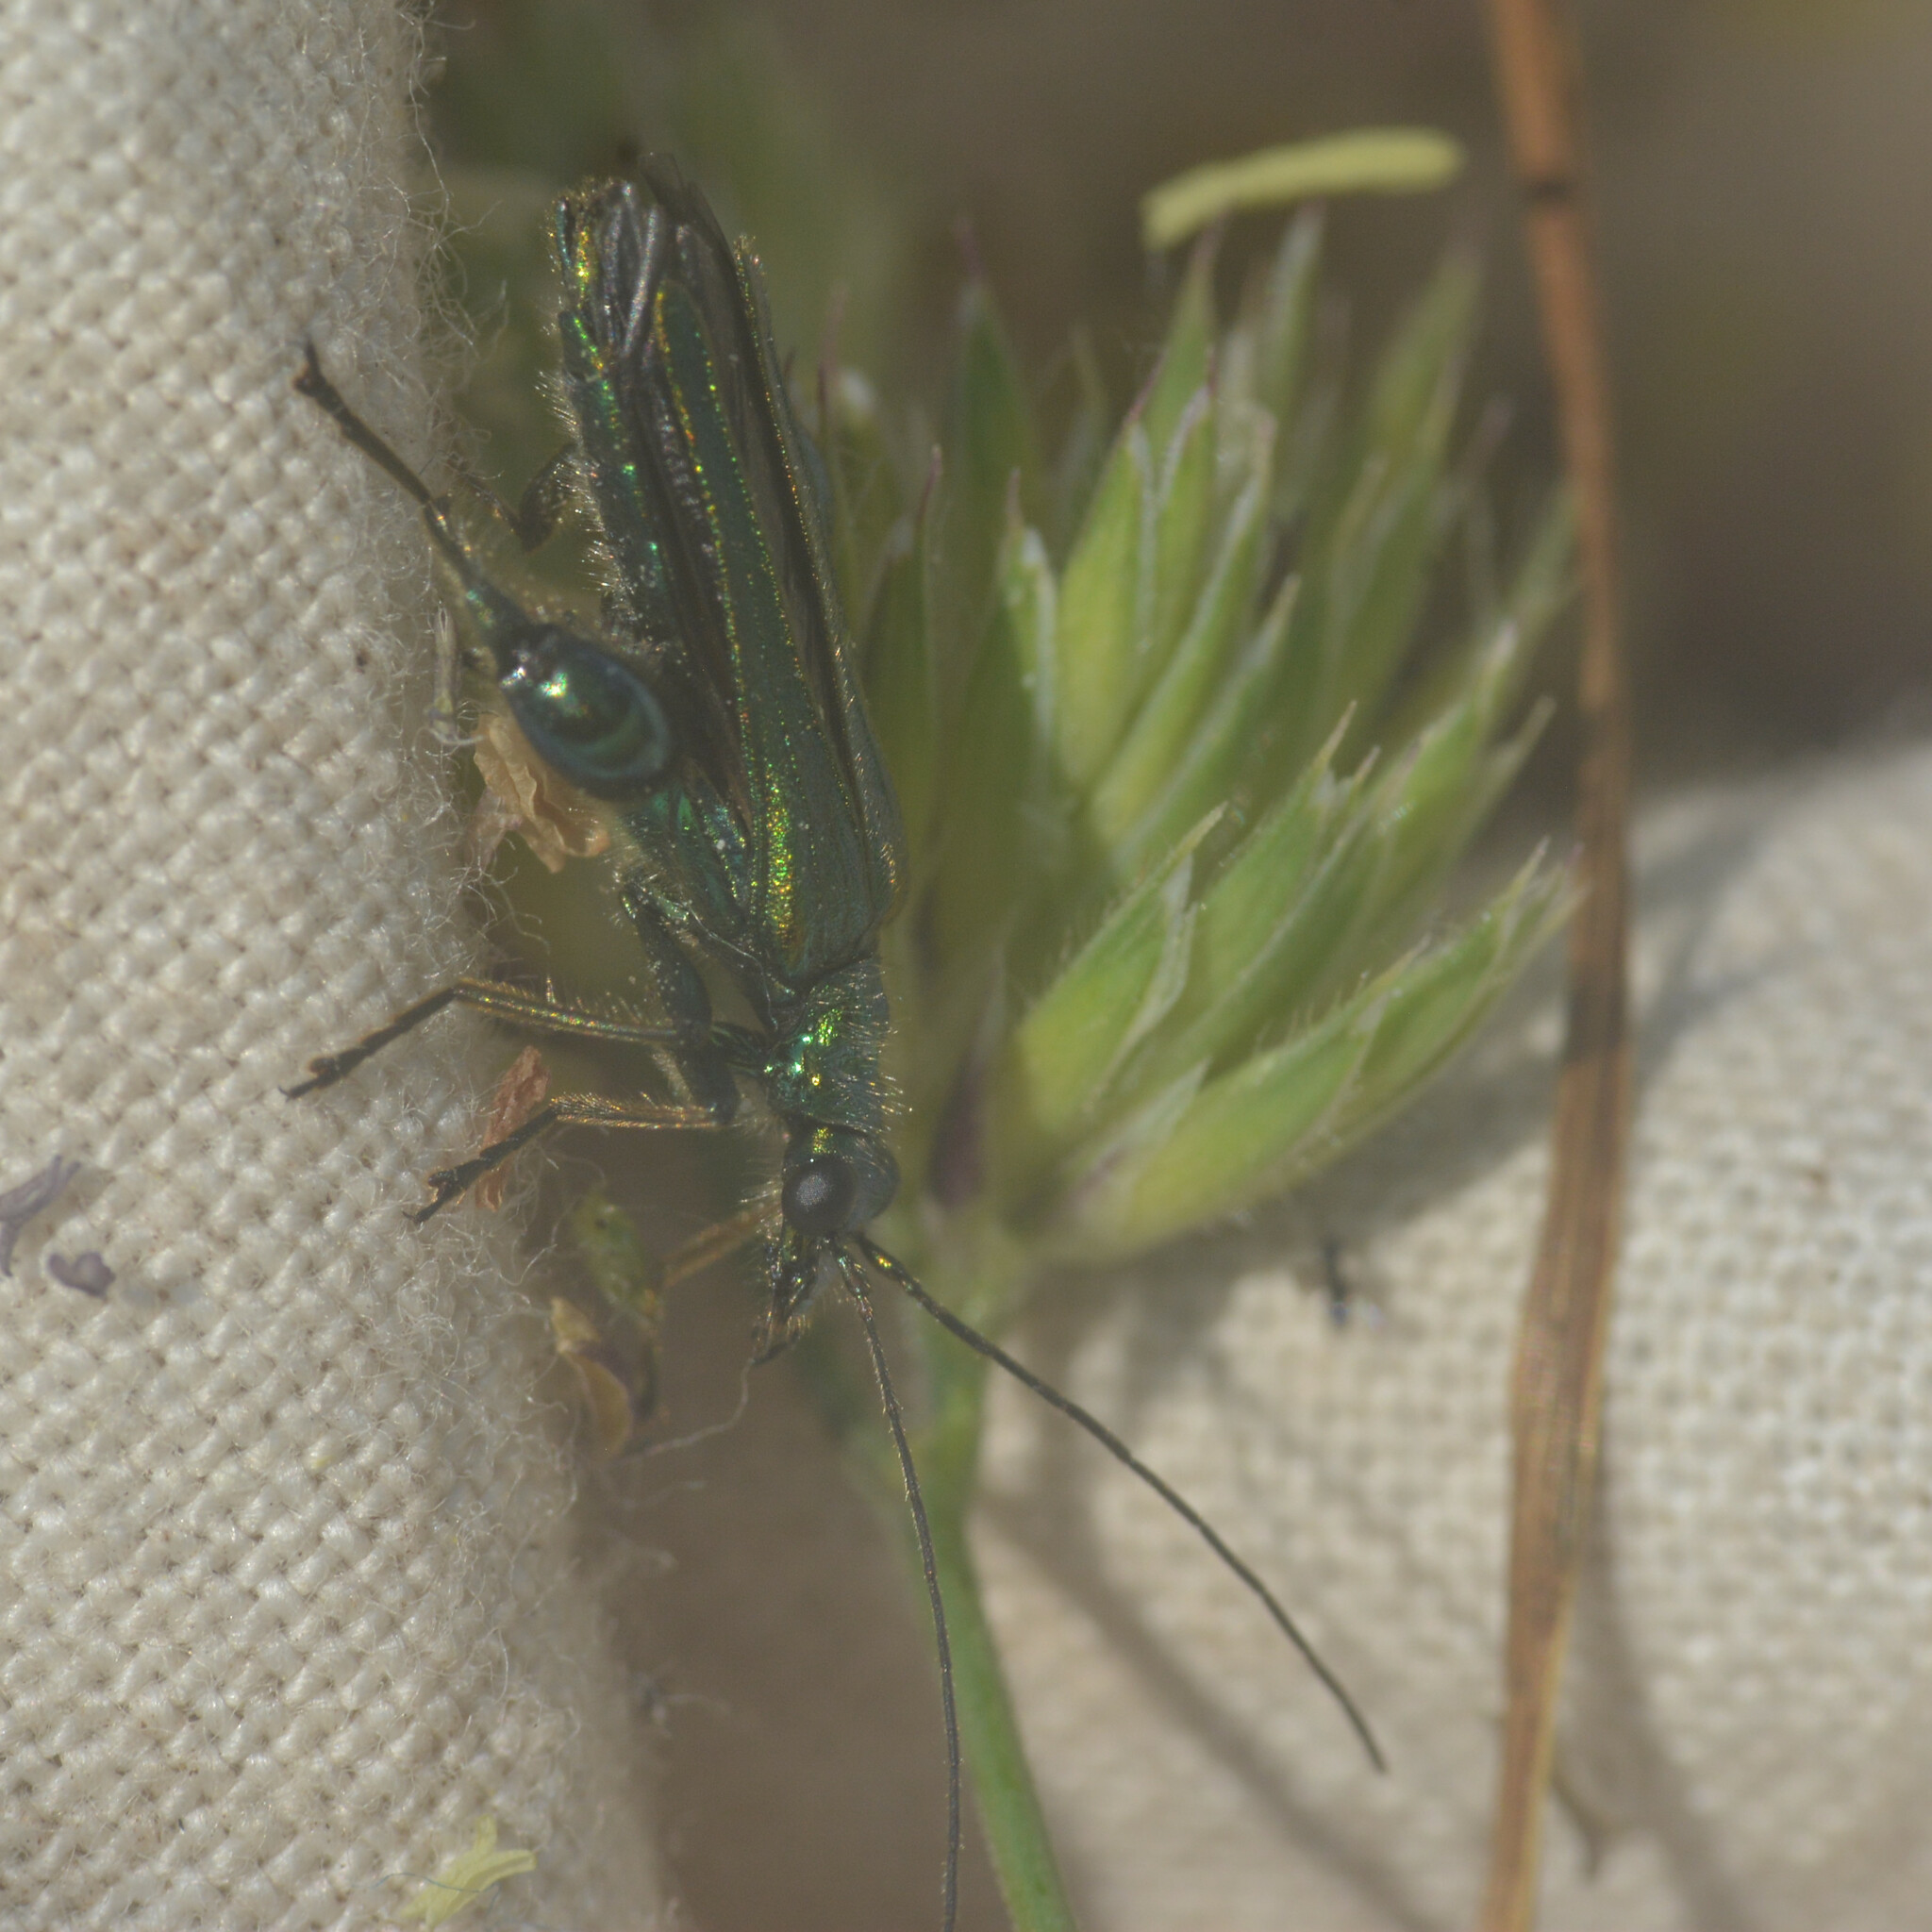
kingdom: Animalia
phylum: Arthropoda
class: Insecta
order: Coleoptera
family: Oedemeridae
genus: Oedemera
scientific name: Oedemera nobilis
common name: Swollen-thighed beetle
